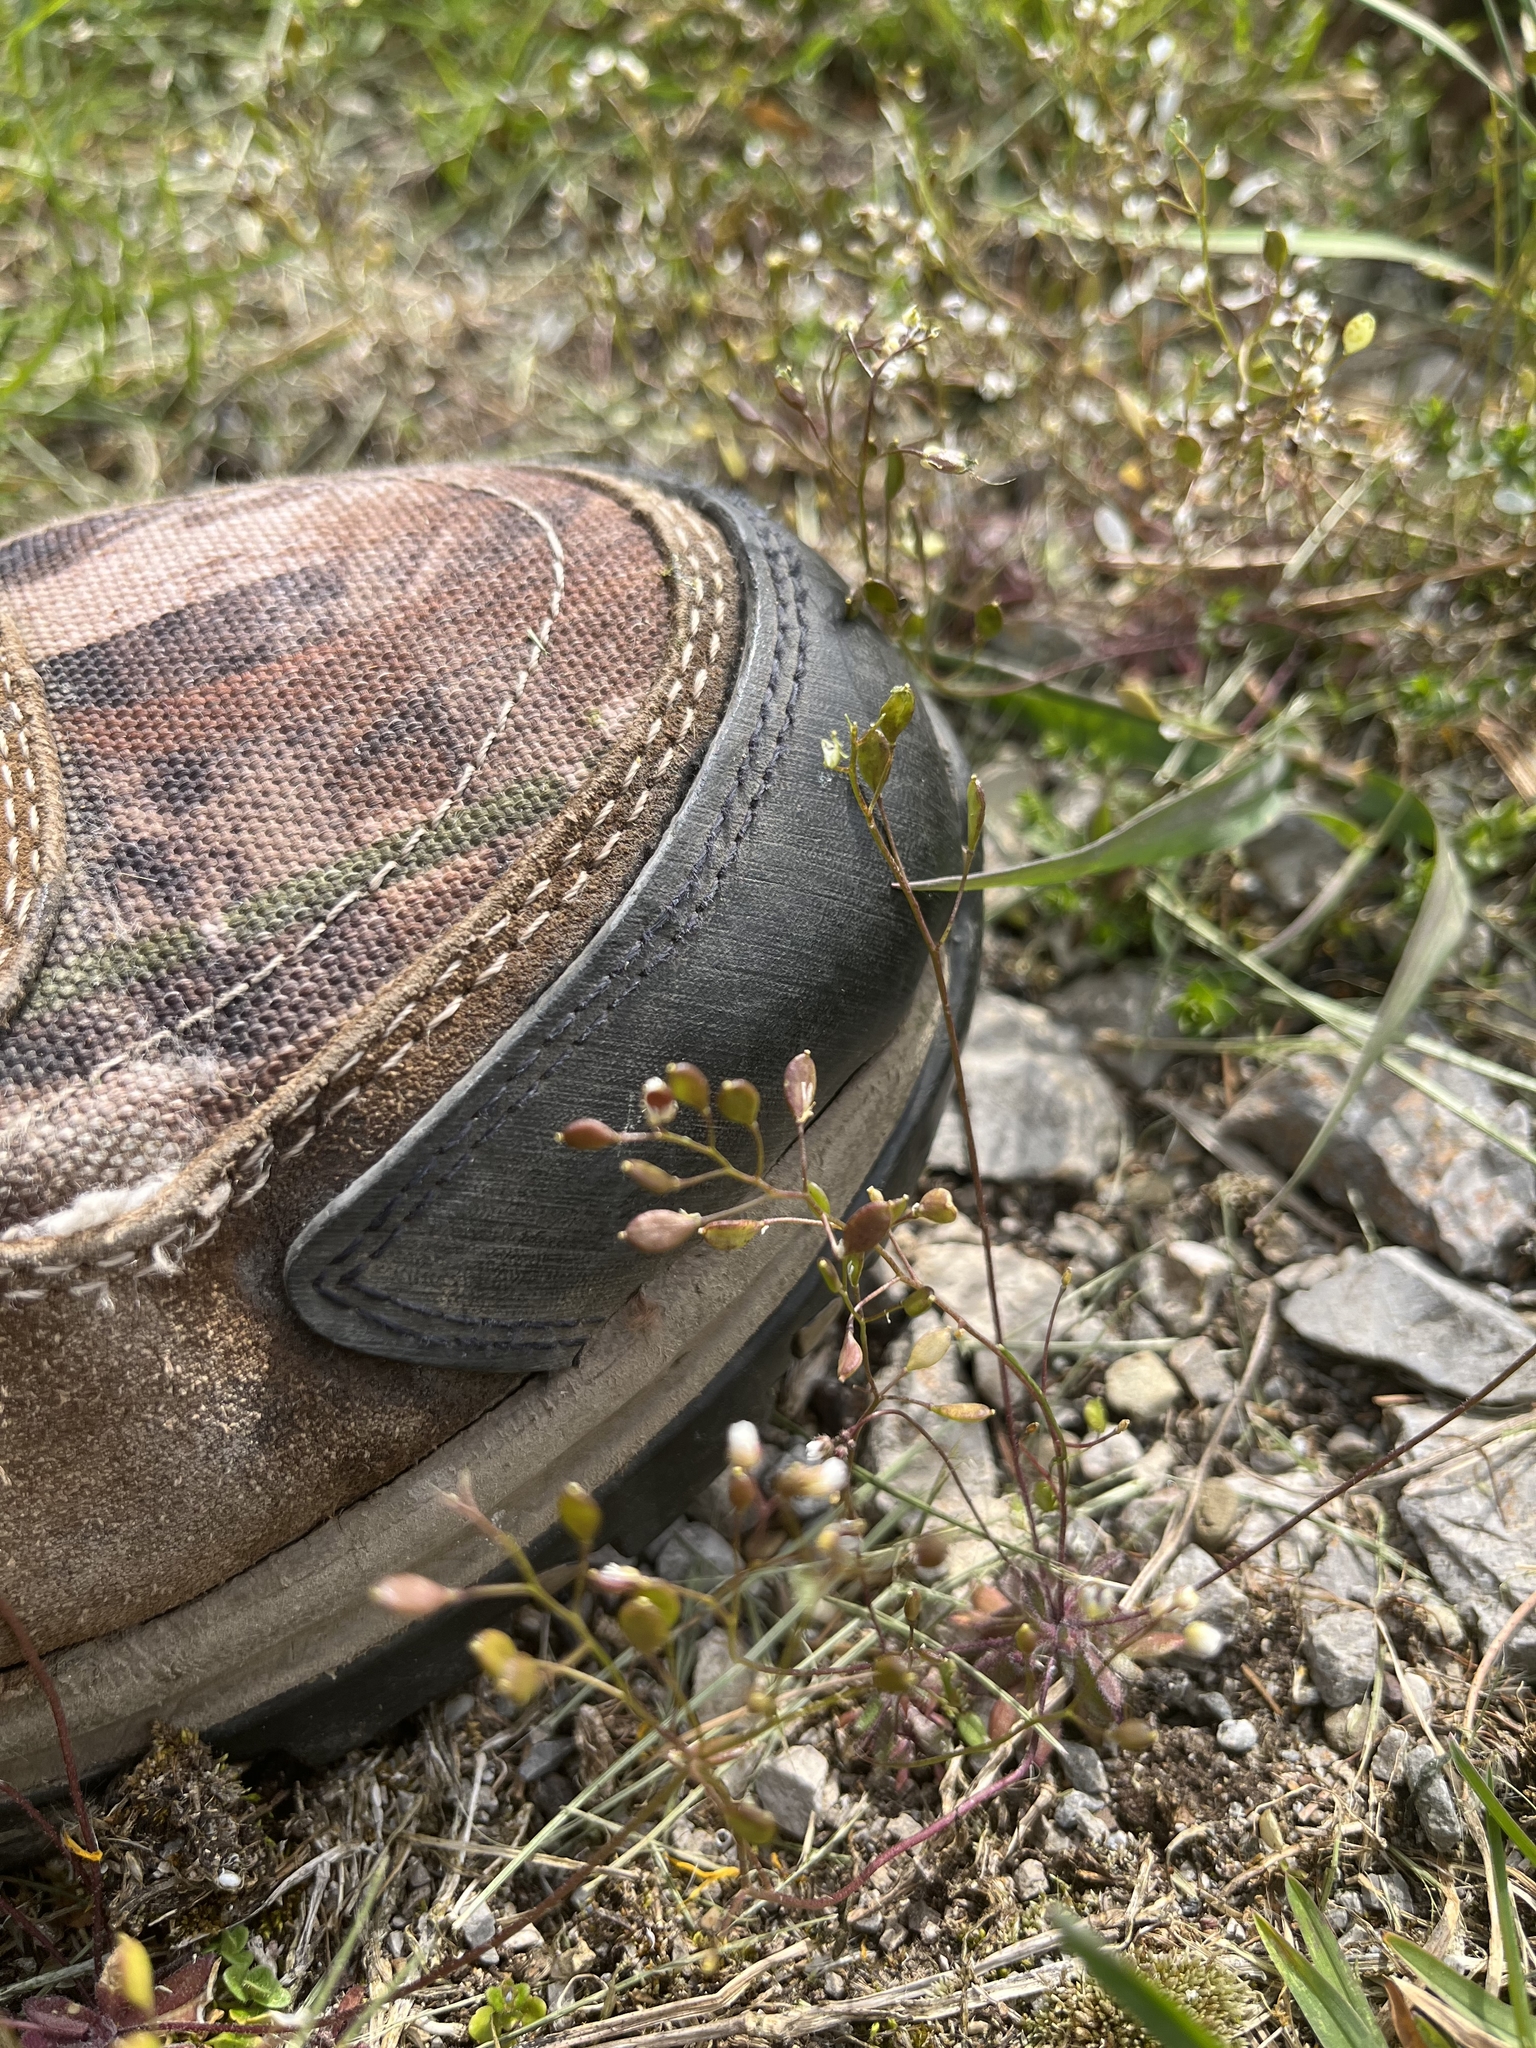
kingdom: Plantae
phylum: Tracheophyta
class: Magnoliopsida
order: Brassicales
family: Brassicaceae
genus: Draba
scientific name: Draba verna
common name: Spring draba
